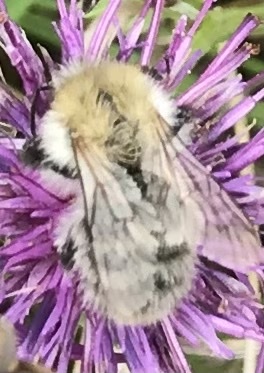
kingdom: Animalia
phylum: Arthropoda
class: Insecta
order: Hymenoptera
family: Apidae
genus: Bombus
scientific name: Bombus pascuorum
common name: Common carder bee
